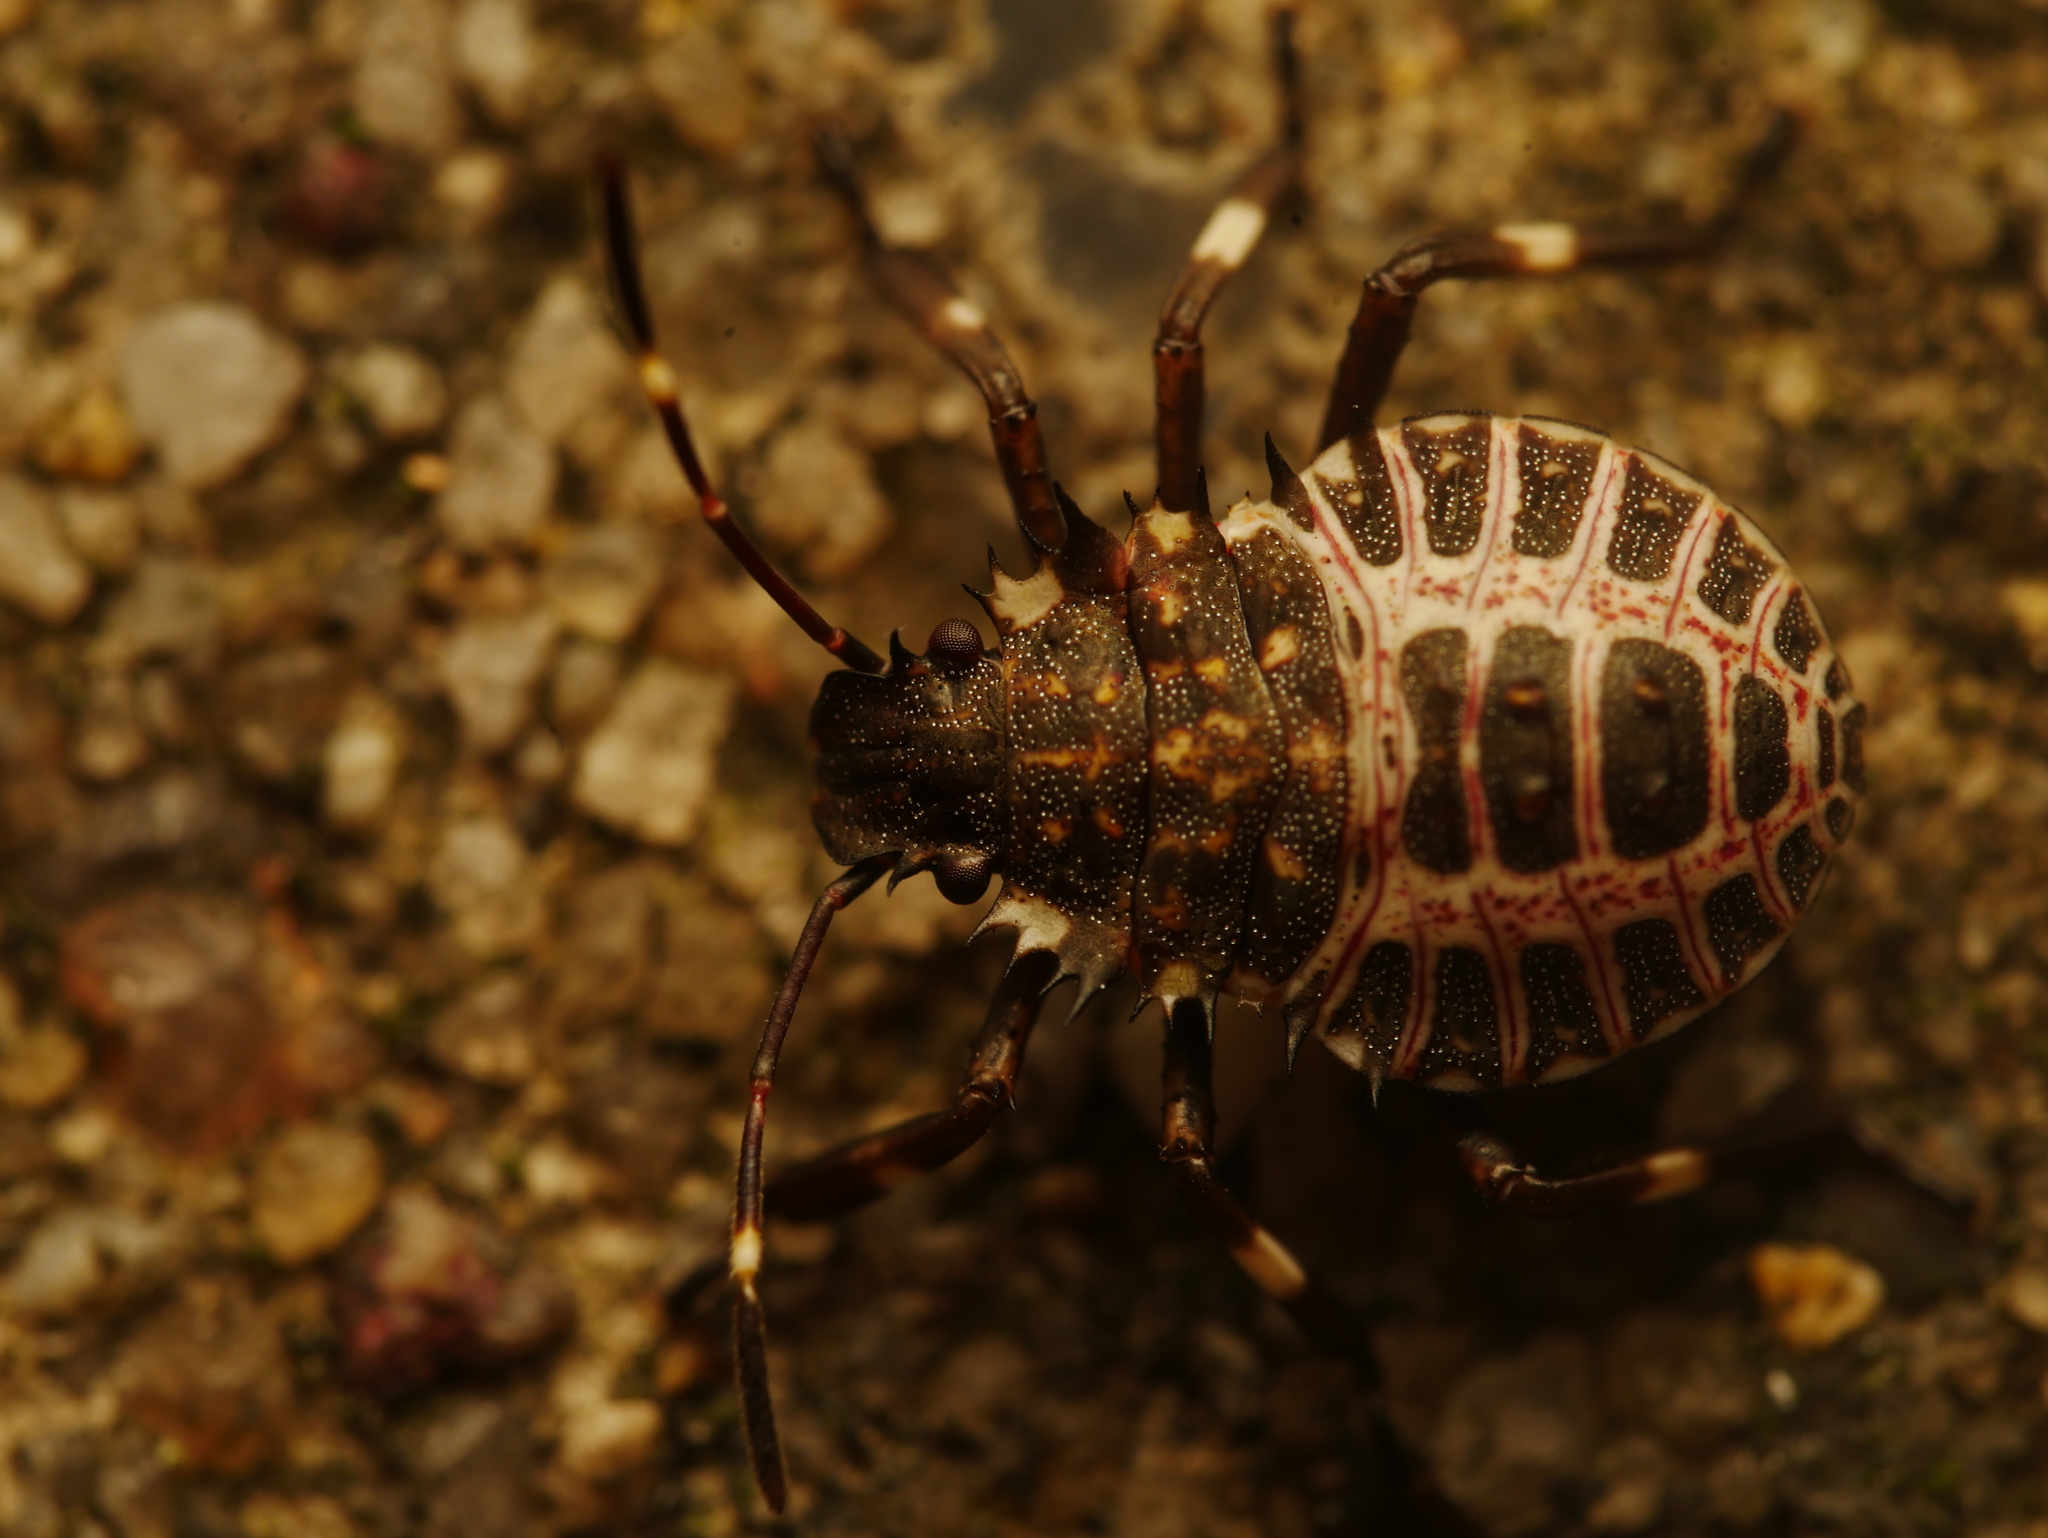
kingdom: Animalia
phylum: Arthropoda
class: Insecta
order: Hemiptera
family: Pentatomidae
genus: Halyomorpha
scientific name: Halyomorpha halys
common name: Brown marmorated stink bug
